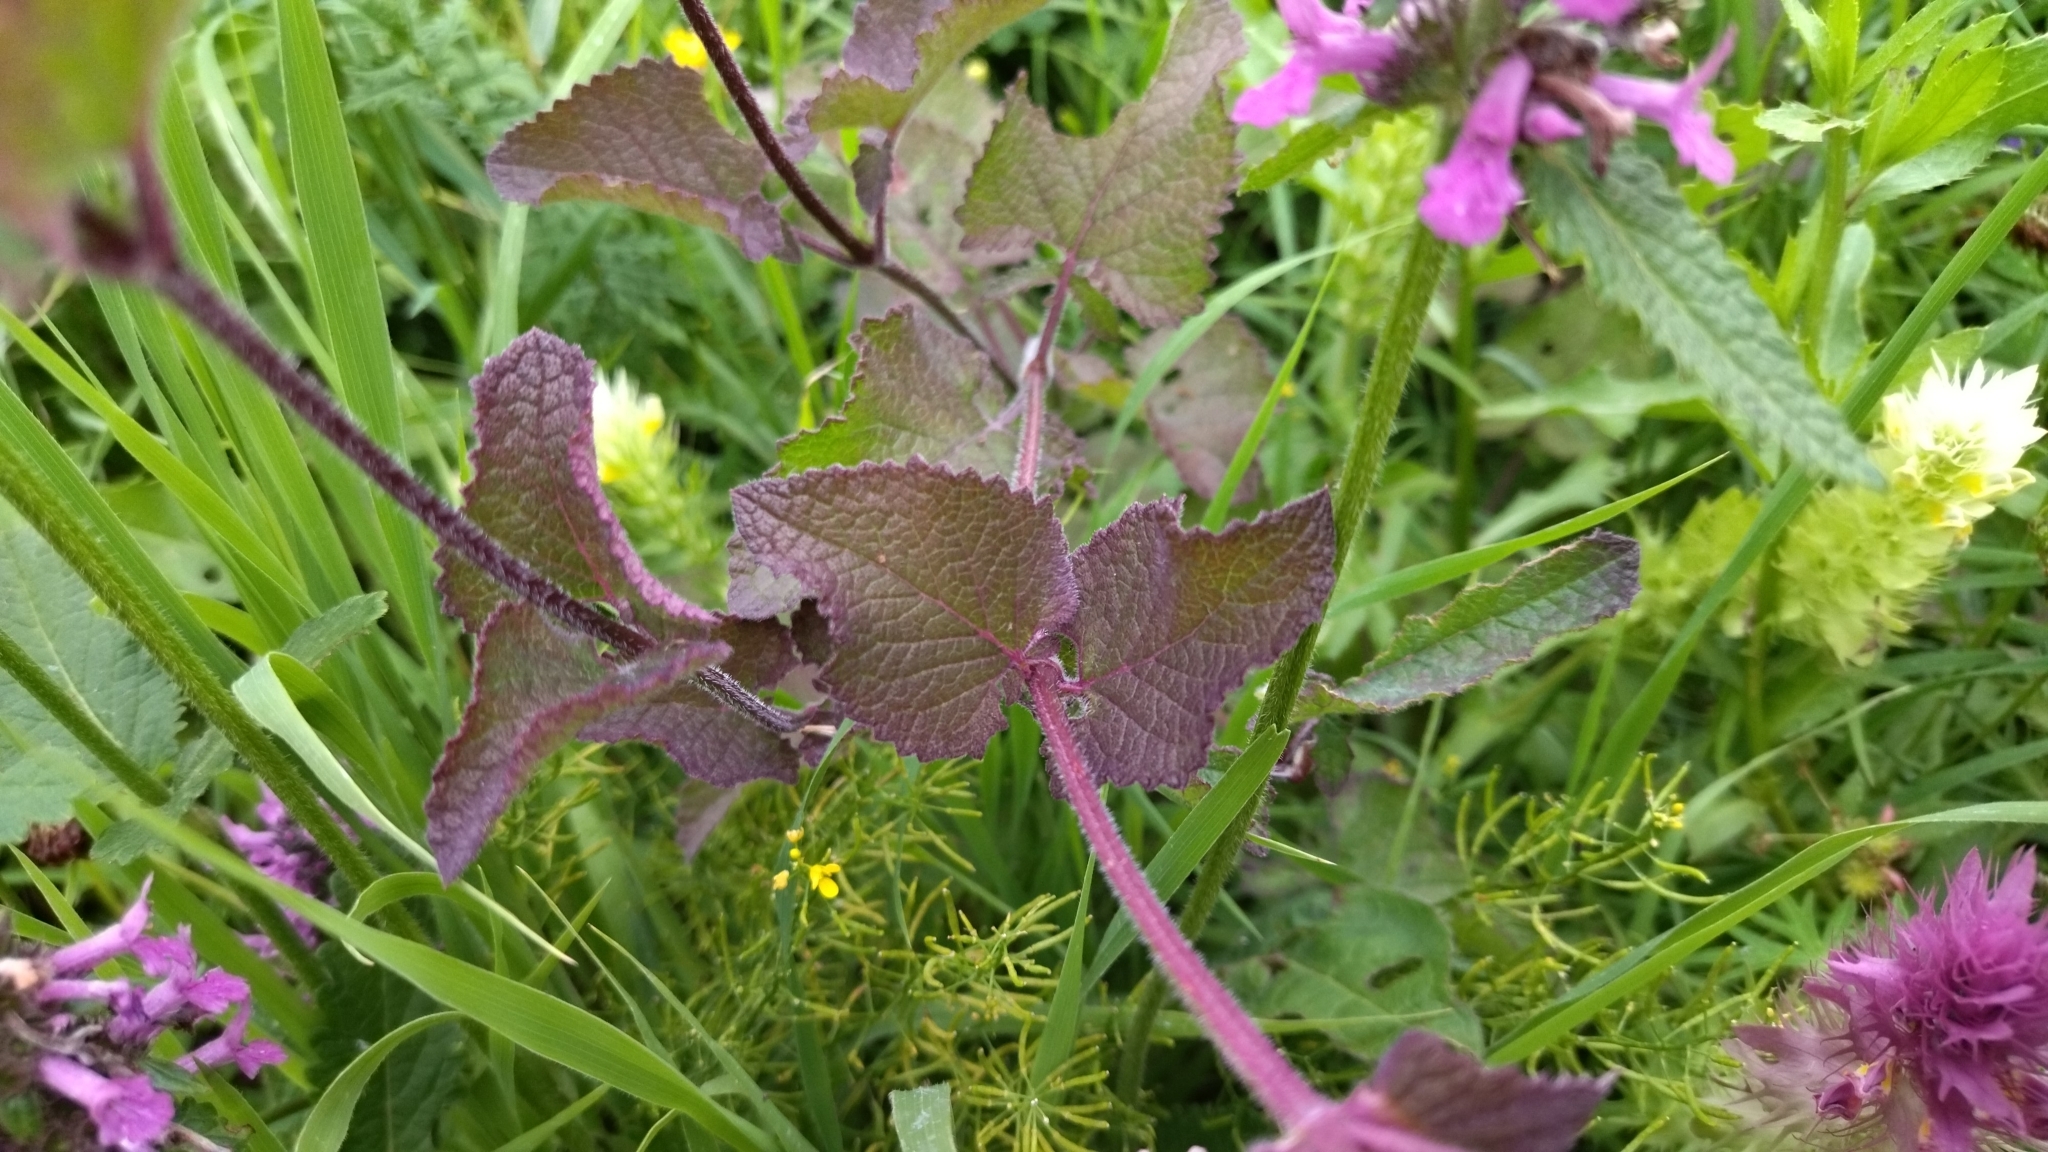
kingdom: Plantae
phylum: Tracheophyta
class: Magnoliopsida
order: Lamiales
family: Lamiaceae
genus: Salvia
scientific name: Salvia verticillata
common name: Whorled clary
